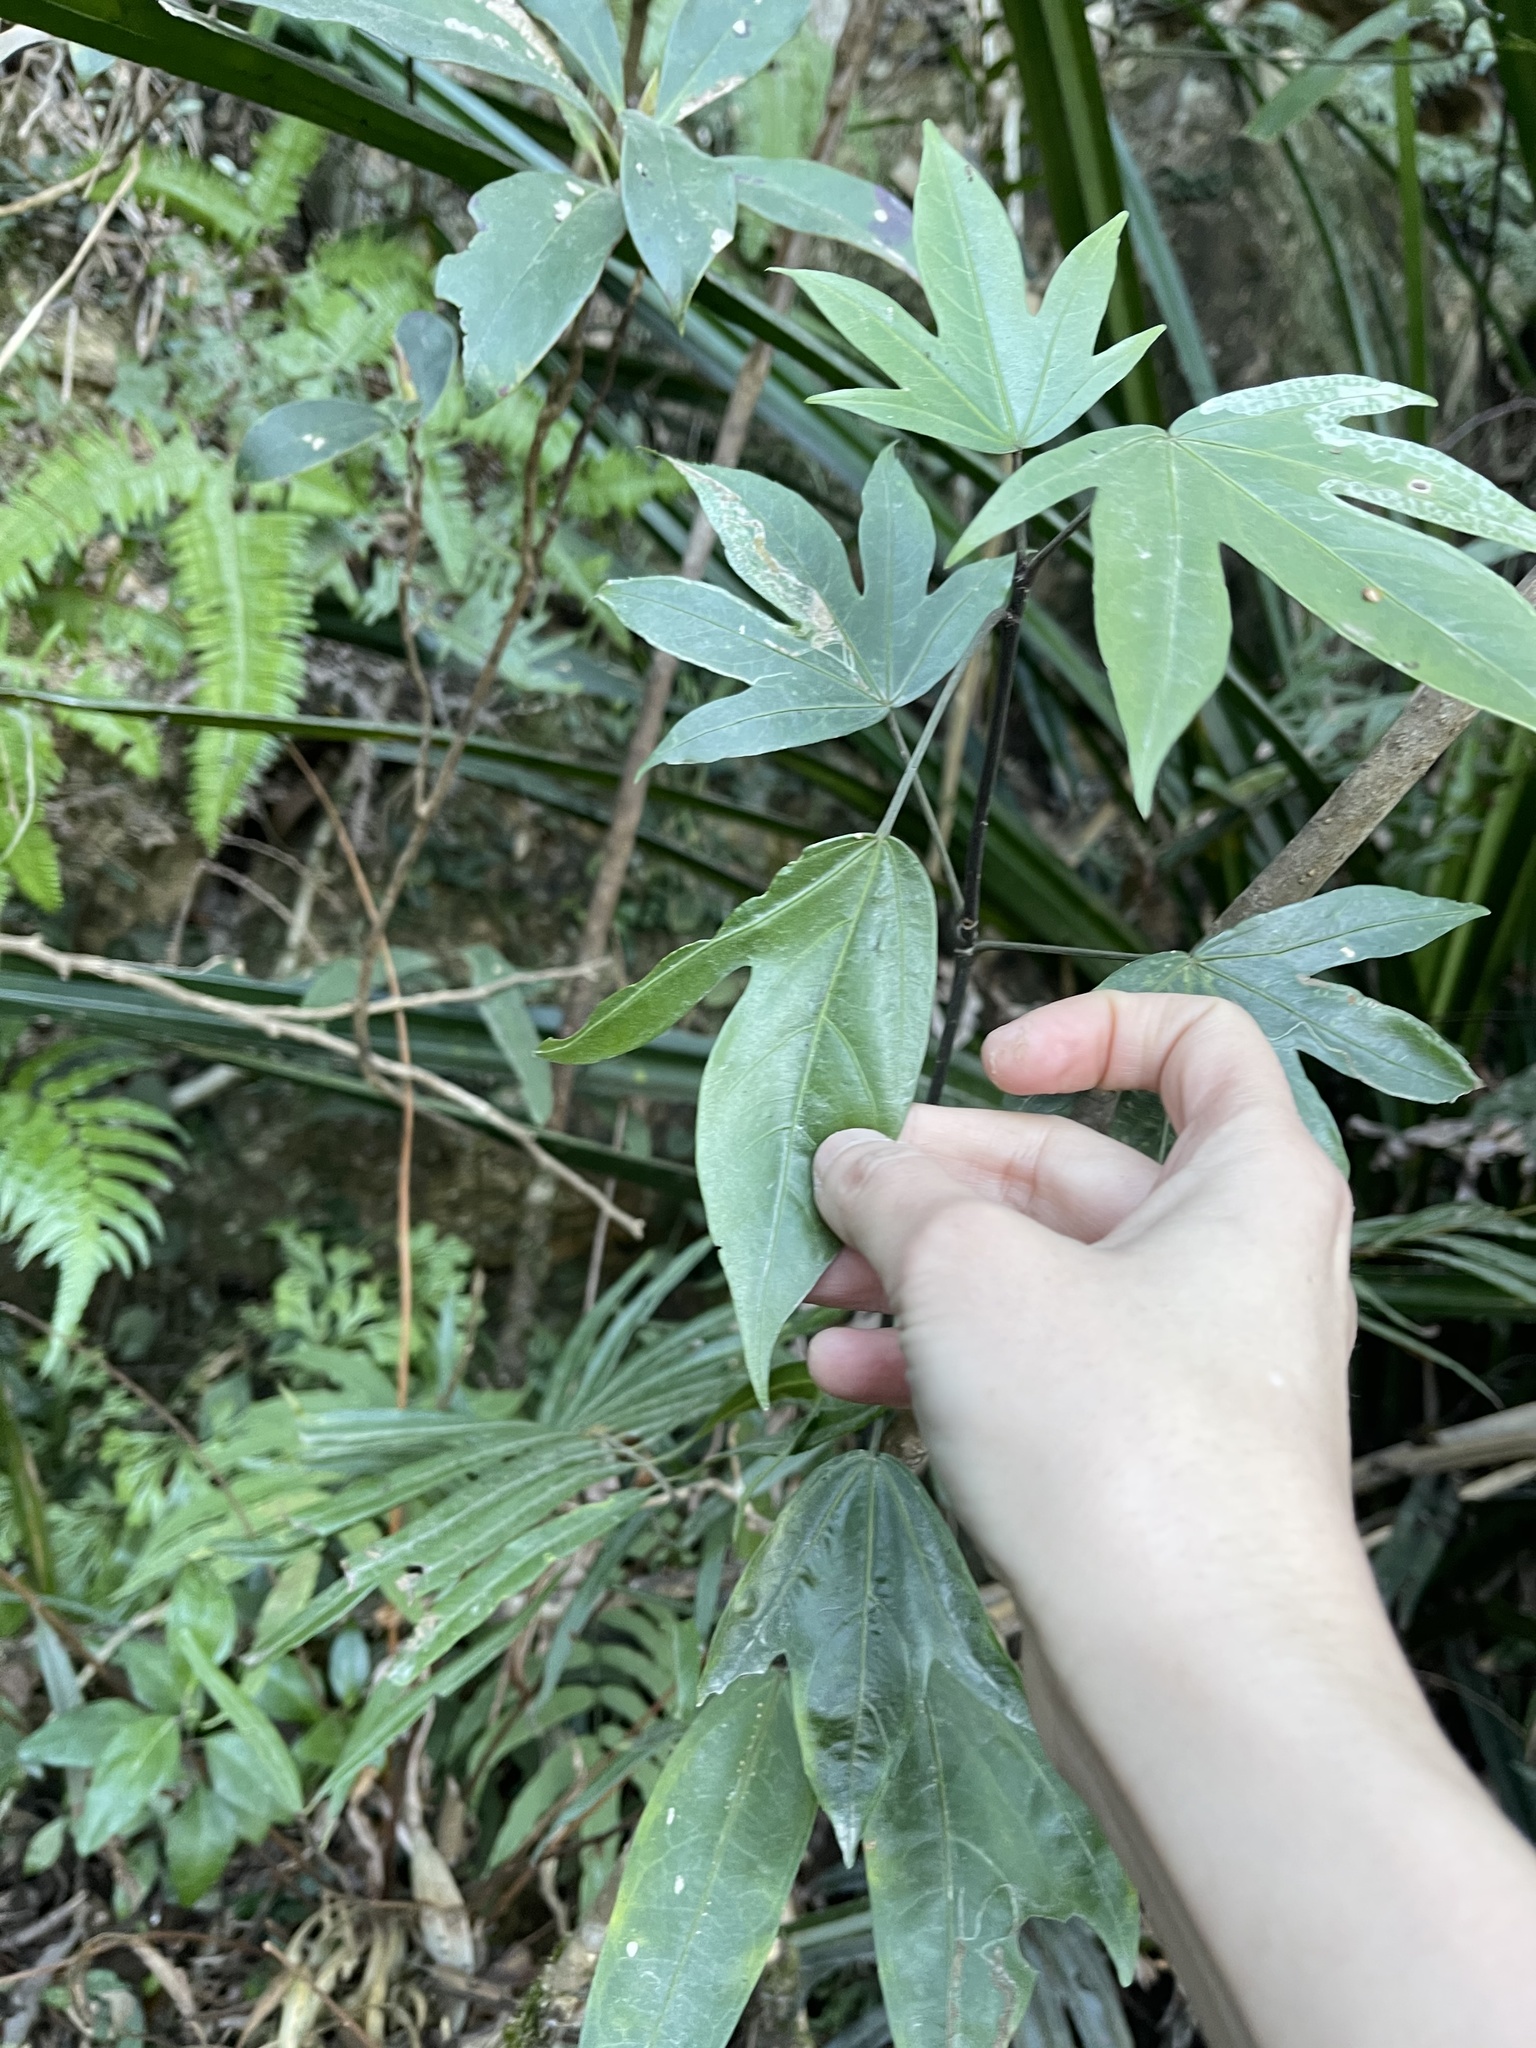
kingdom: Plantae
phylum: Tracheophyta
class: Magnoliopsida
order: Apiales
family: Araliaceae
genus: Dendropanax
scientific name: Dendropanax proteus
